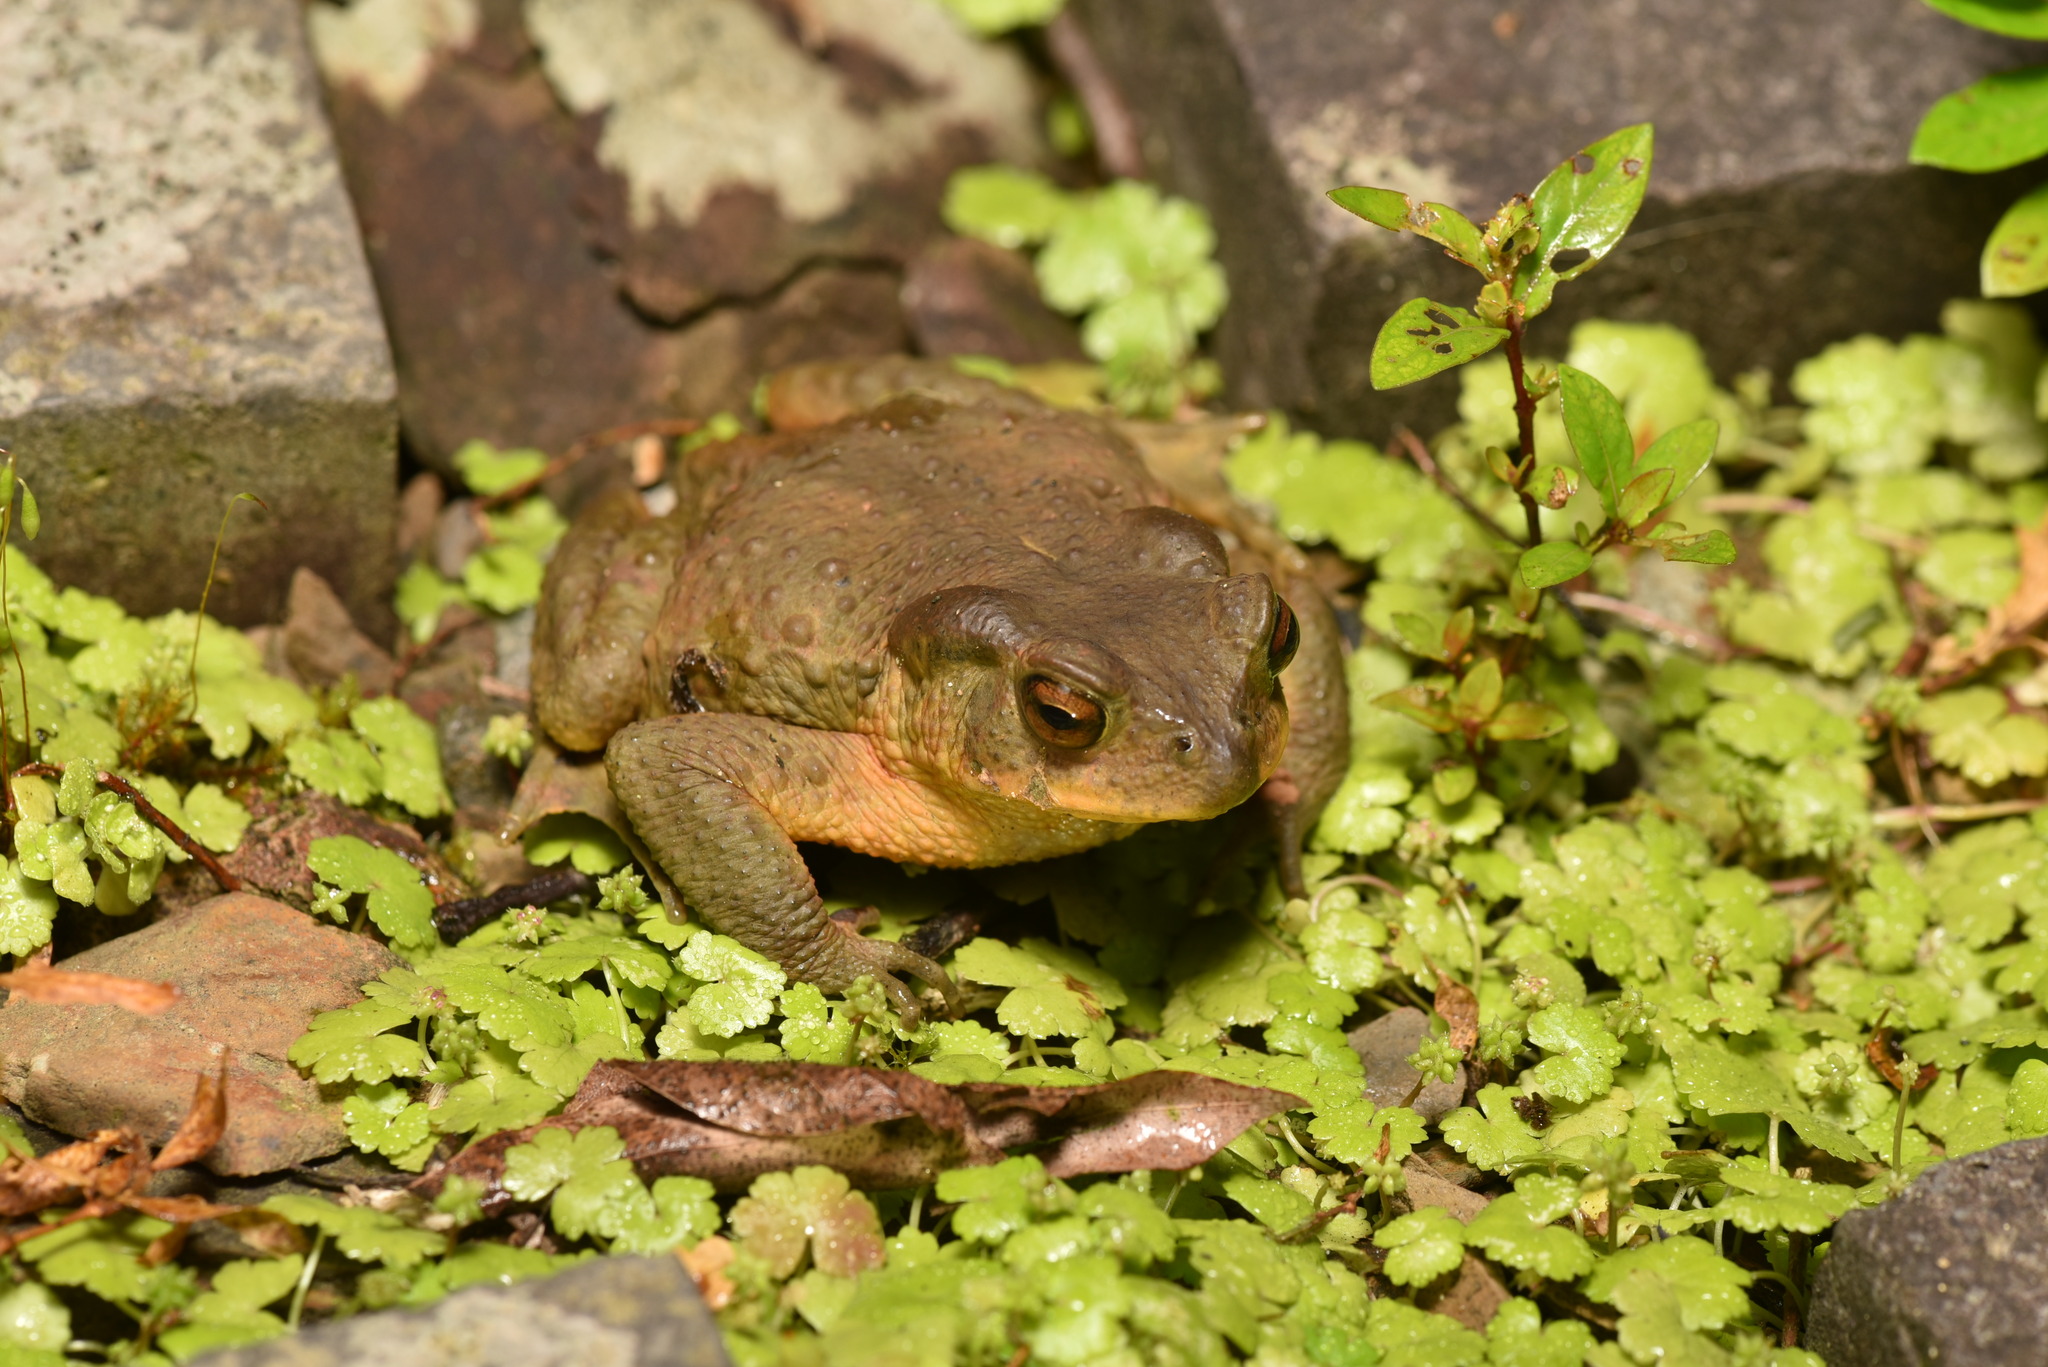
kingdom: Animalia
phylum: Chordata
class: Amphibia
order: Anura
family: Bufonidae
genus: Bufo
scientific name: Bufo bankorensis
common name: Bankor toad
